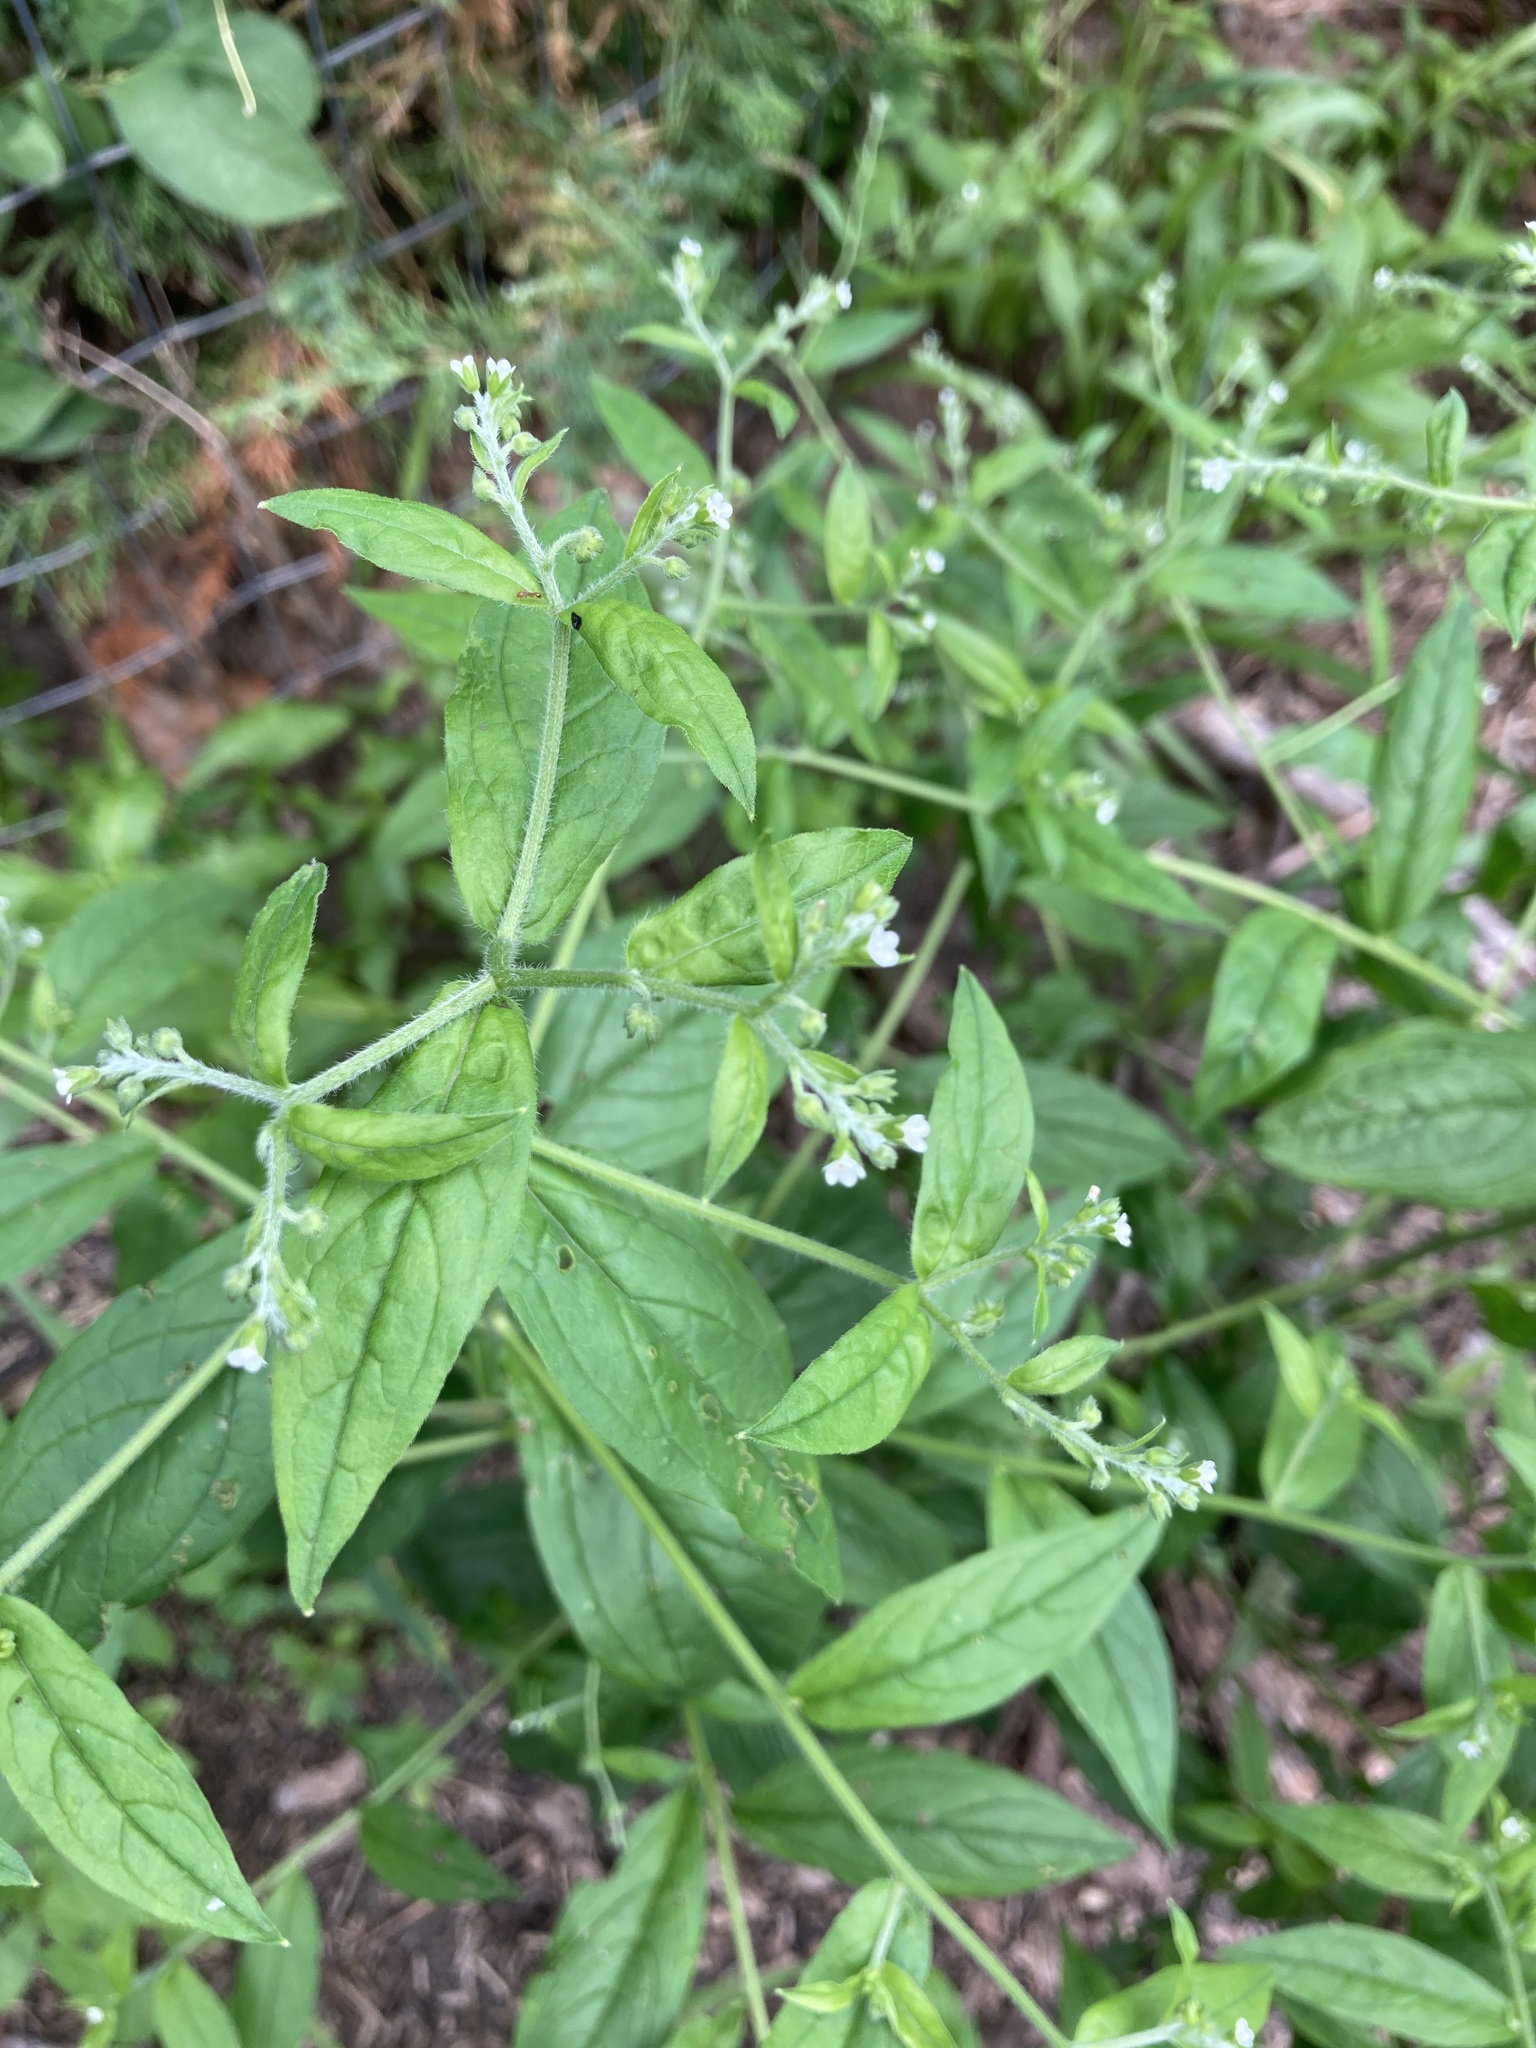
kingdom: Plantae
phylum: Tracheophyta
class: Magnoliopsida
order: Boraginales
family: Boraginaceae
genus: Hackelia
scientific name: Hackelia virginiana
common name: Beggar's-lice
